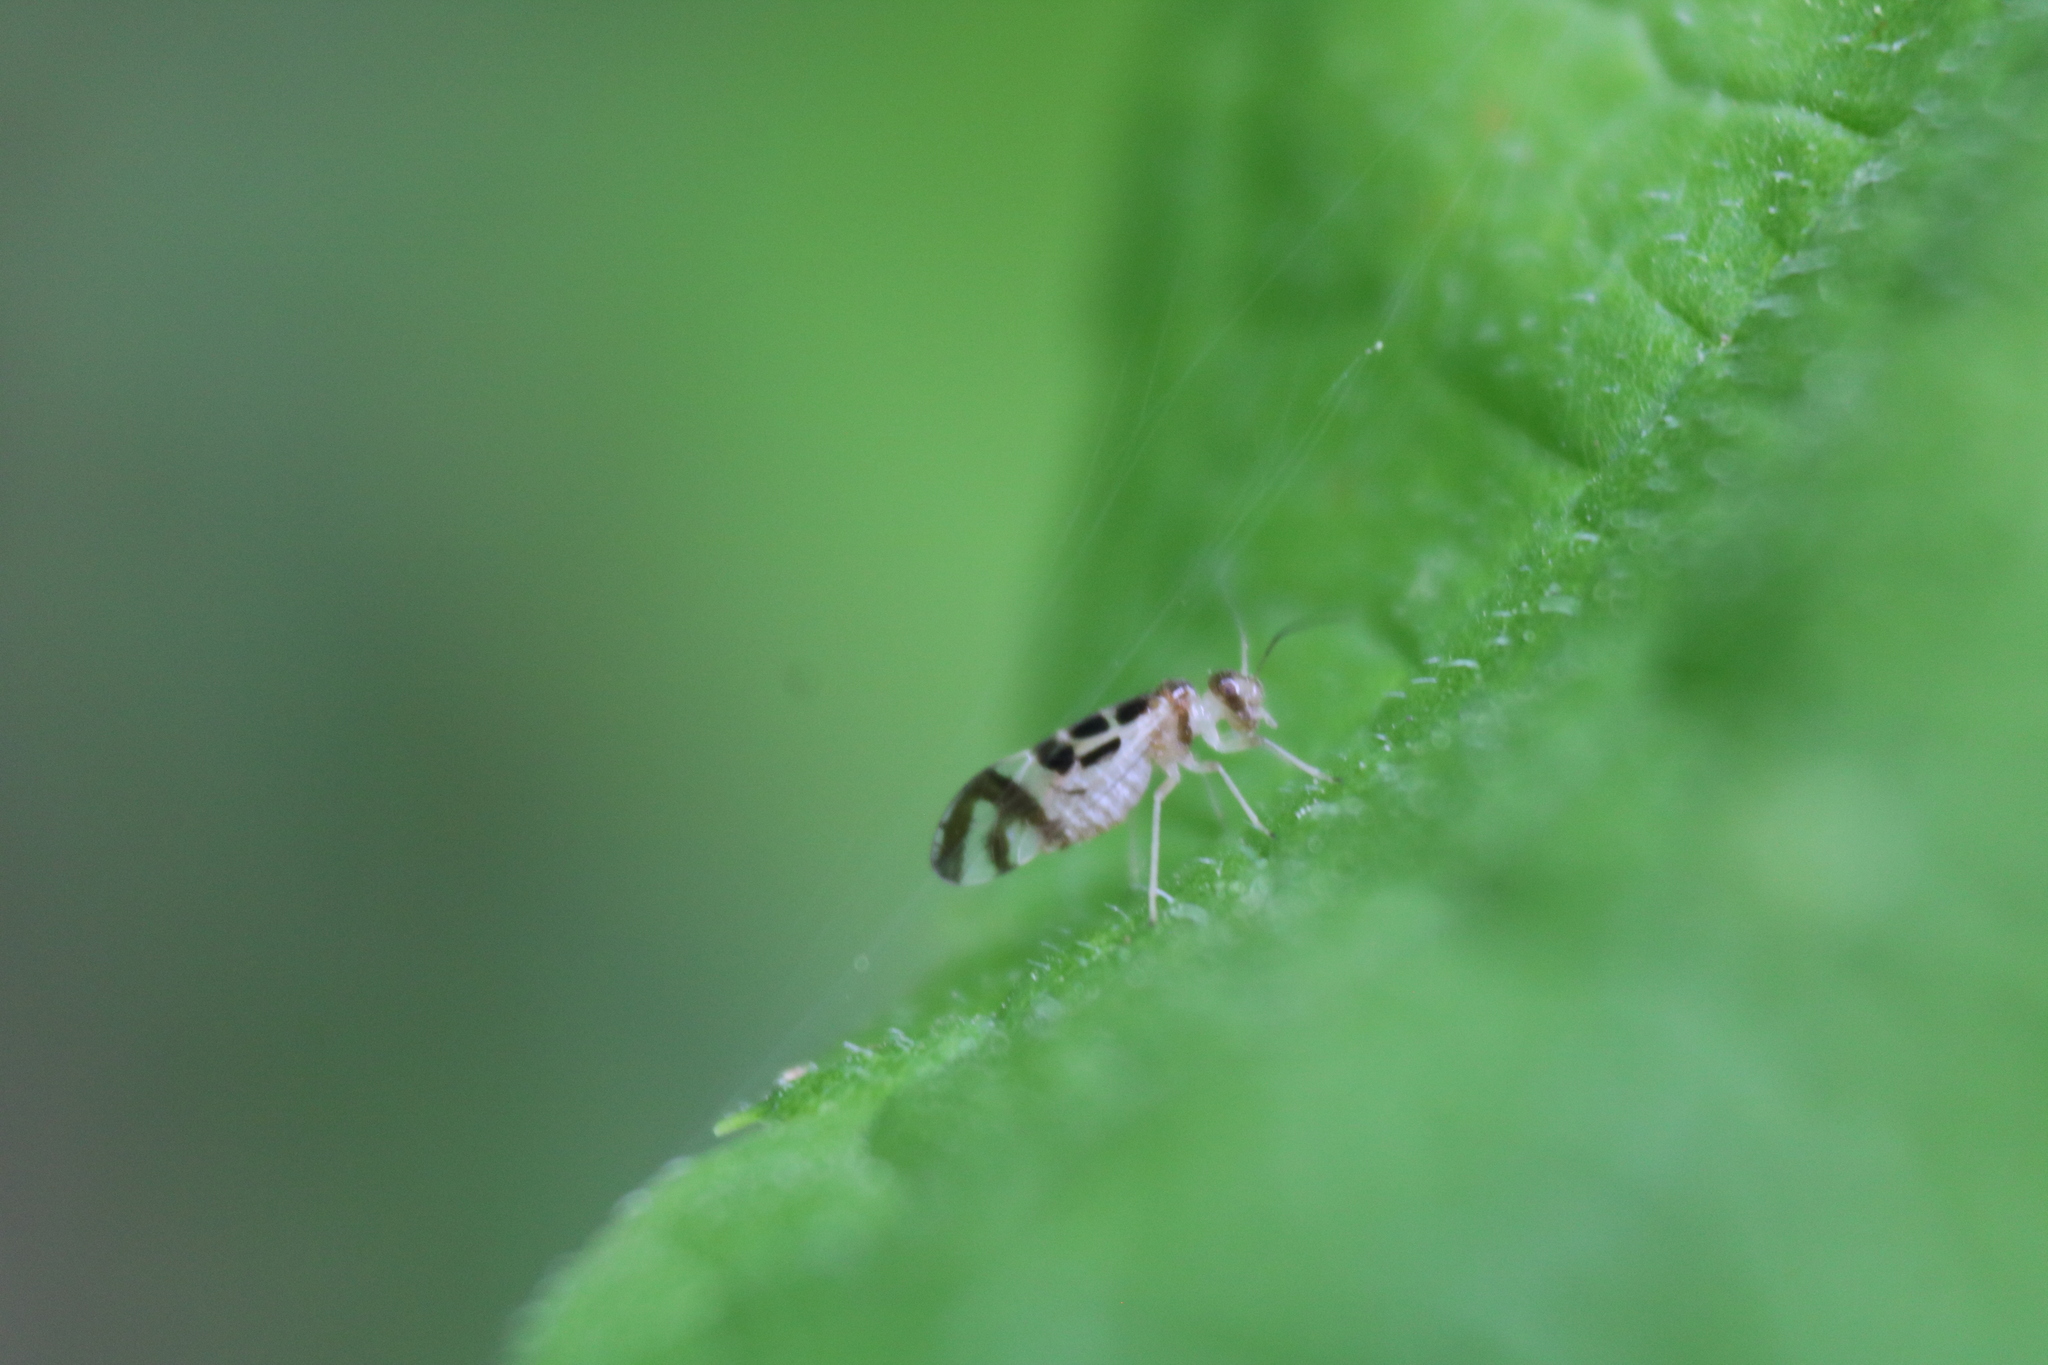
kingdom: Animalia
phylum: Arthropoda
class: Insecta
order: Psocodea
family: Stenopsocidae
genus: Graphopsocus
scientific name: Graphopsocus cruciatus
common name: Lizard bark louse
